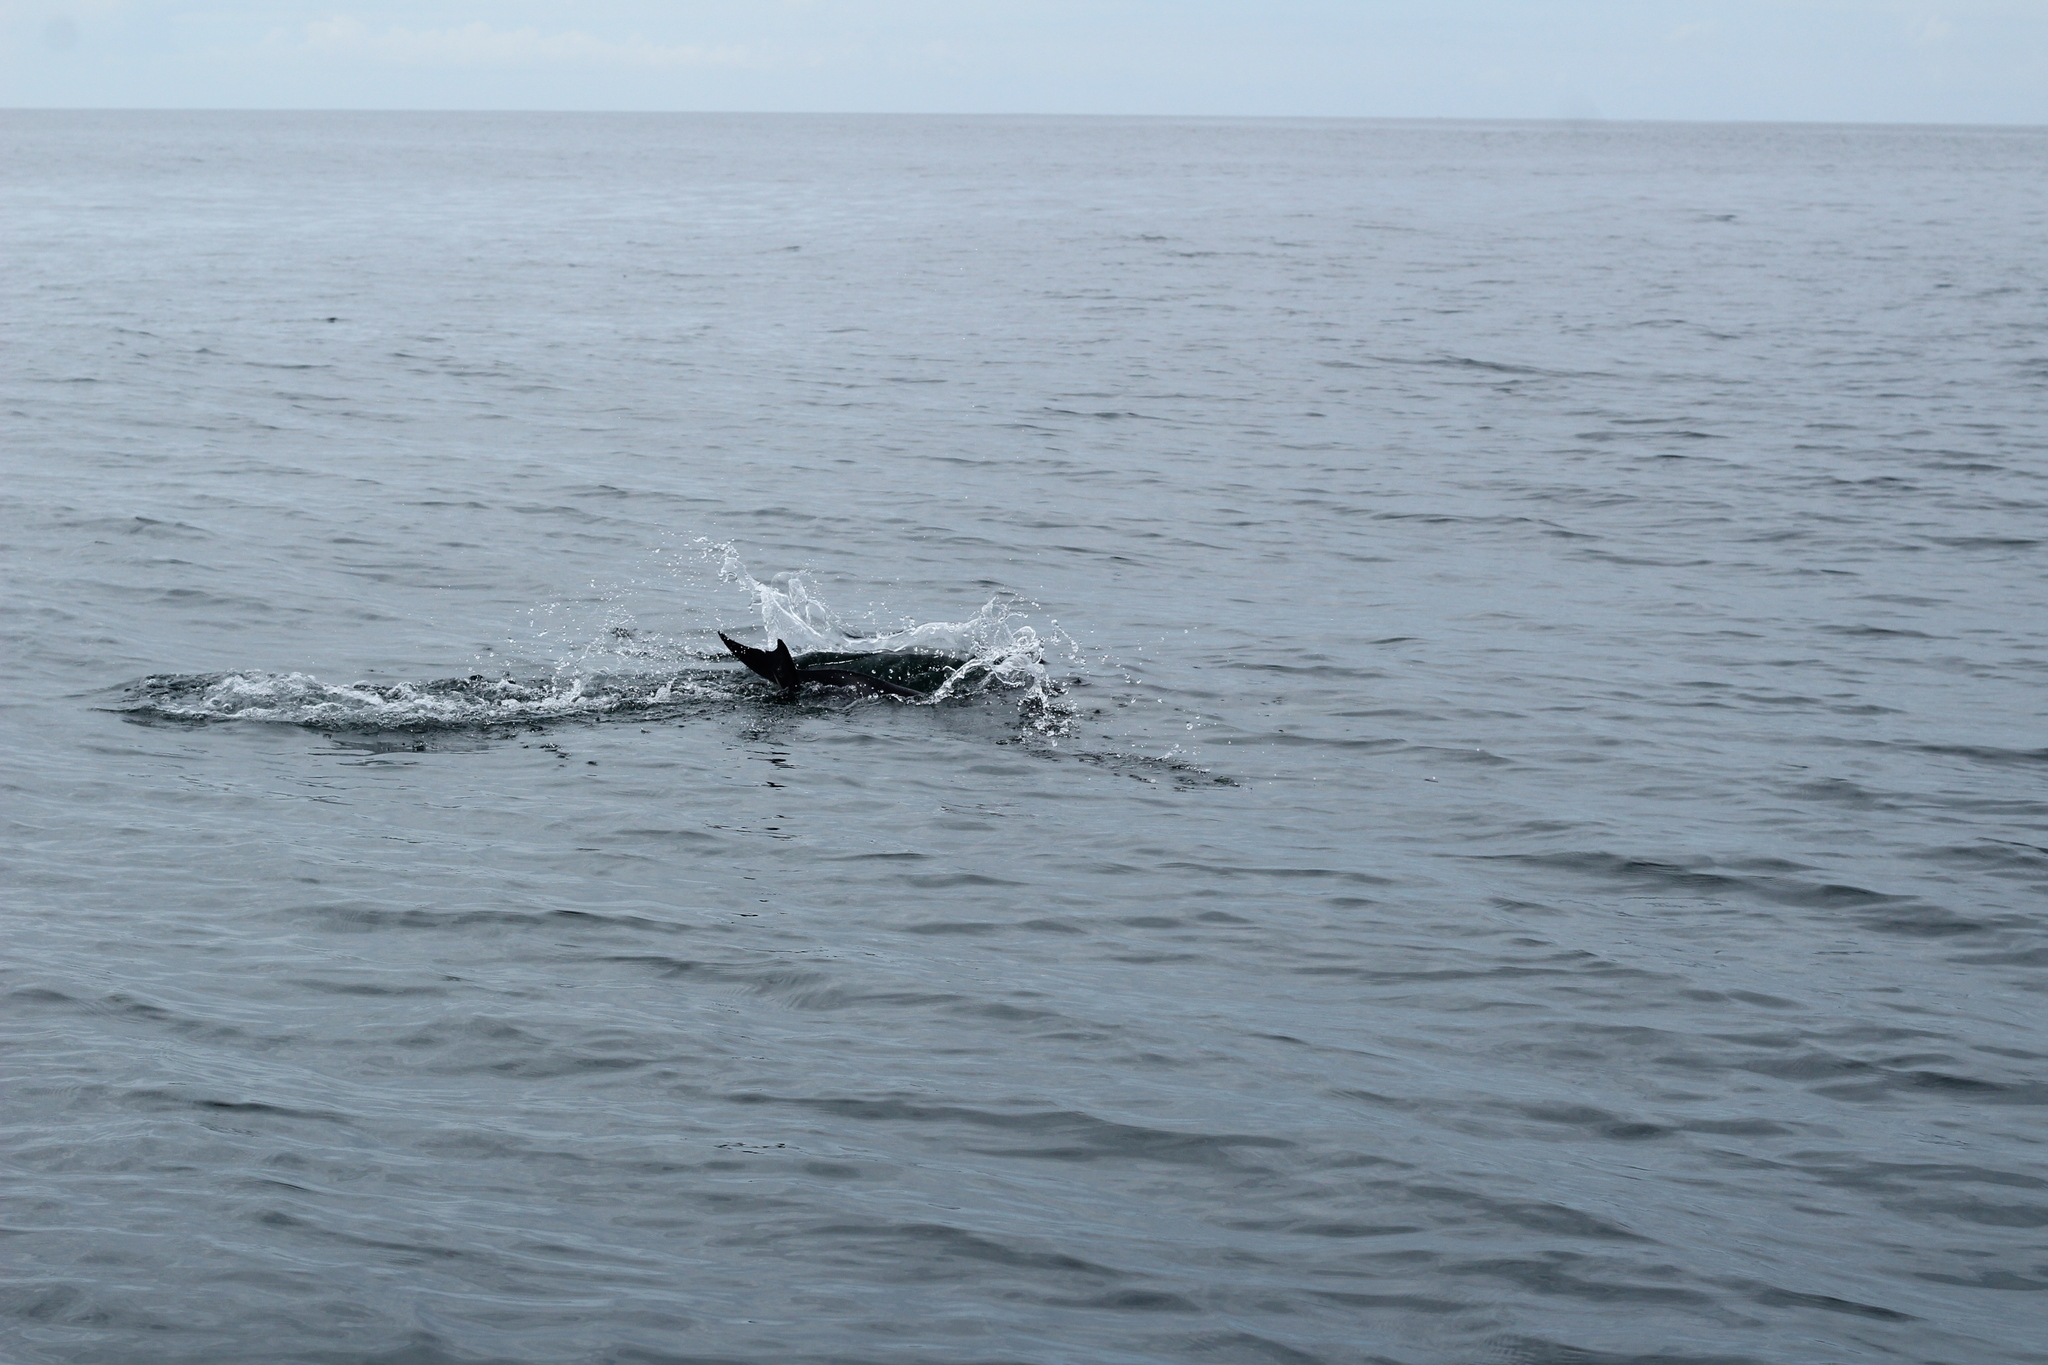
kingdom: Animalia
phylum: Chordata
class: Mammalia
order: Cetacea
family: Delphinidae
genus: Delphinus
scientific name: Delphinus delphis
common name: Common dolphin
